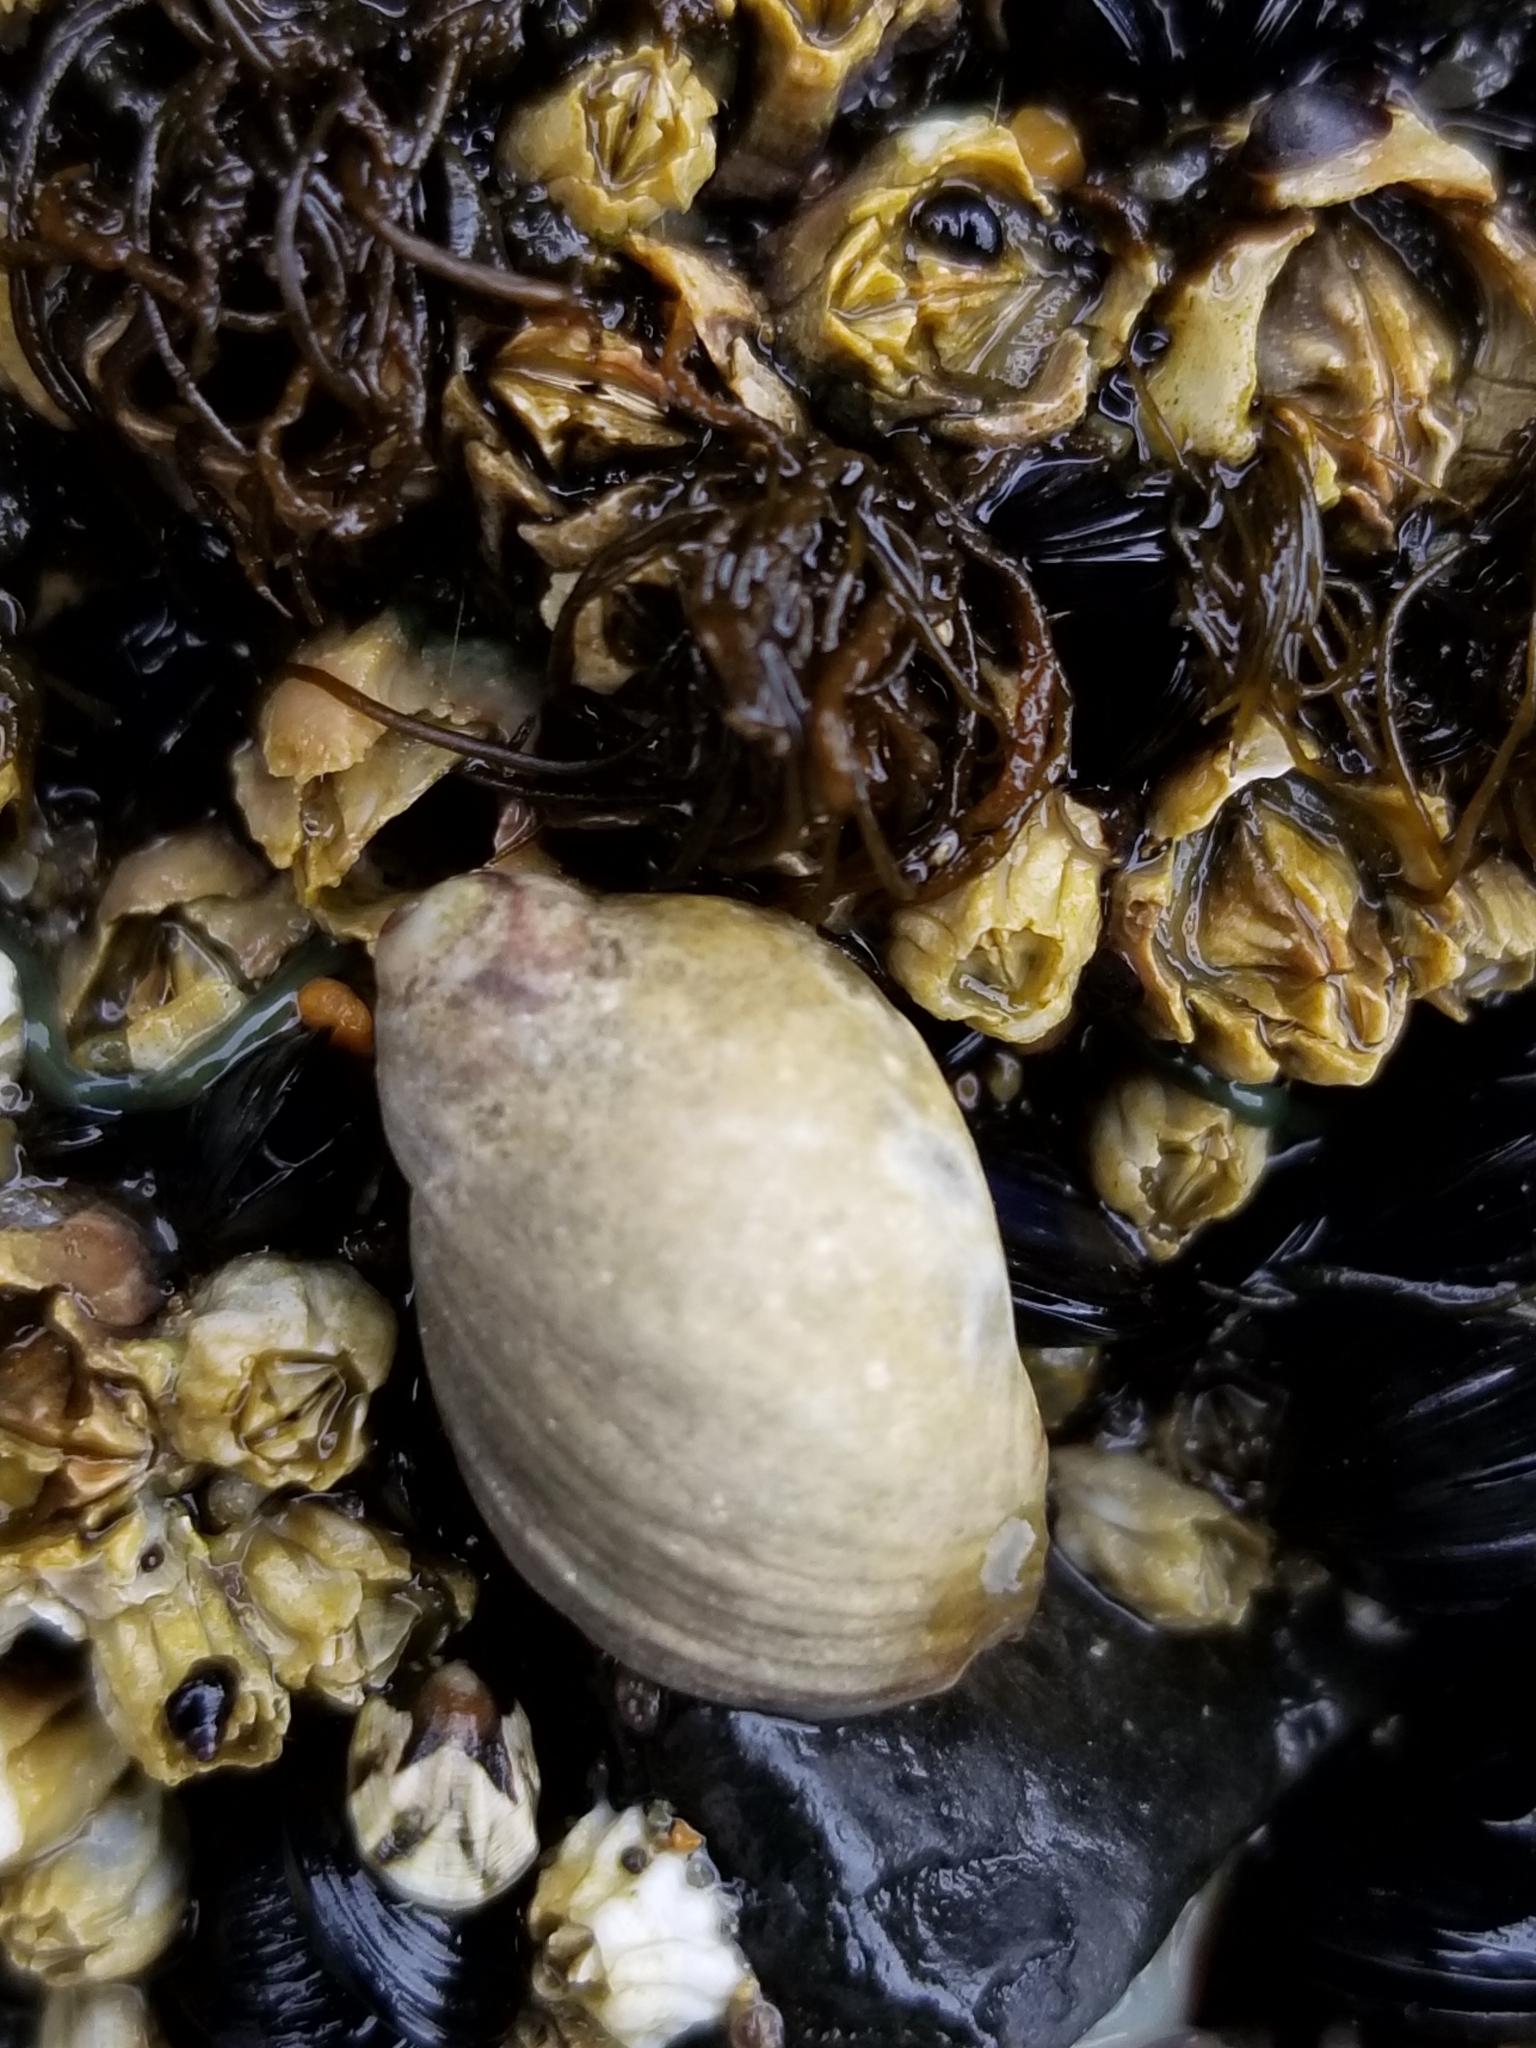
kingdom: Animalia
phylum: Mollusca
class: Gastropoda
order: Neogastropoda
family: Muricidae
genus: Nucella
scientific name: Nucella ostrina
